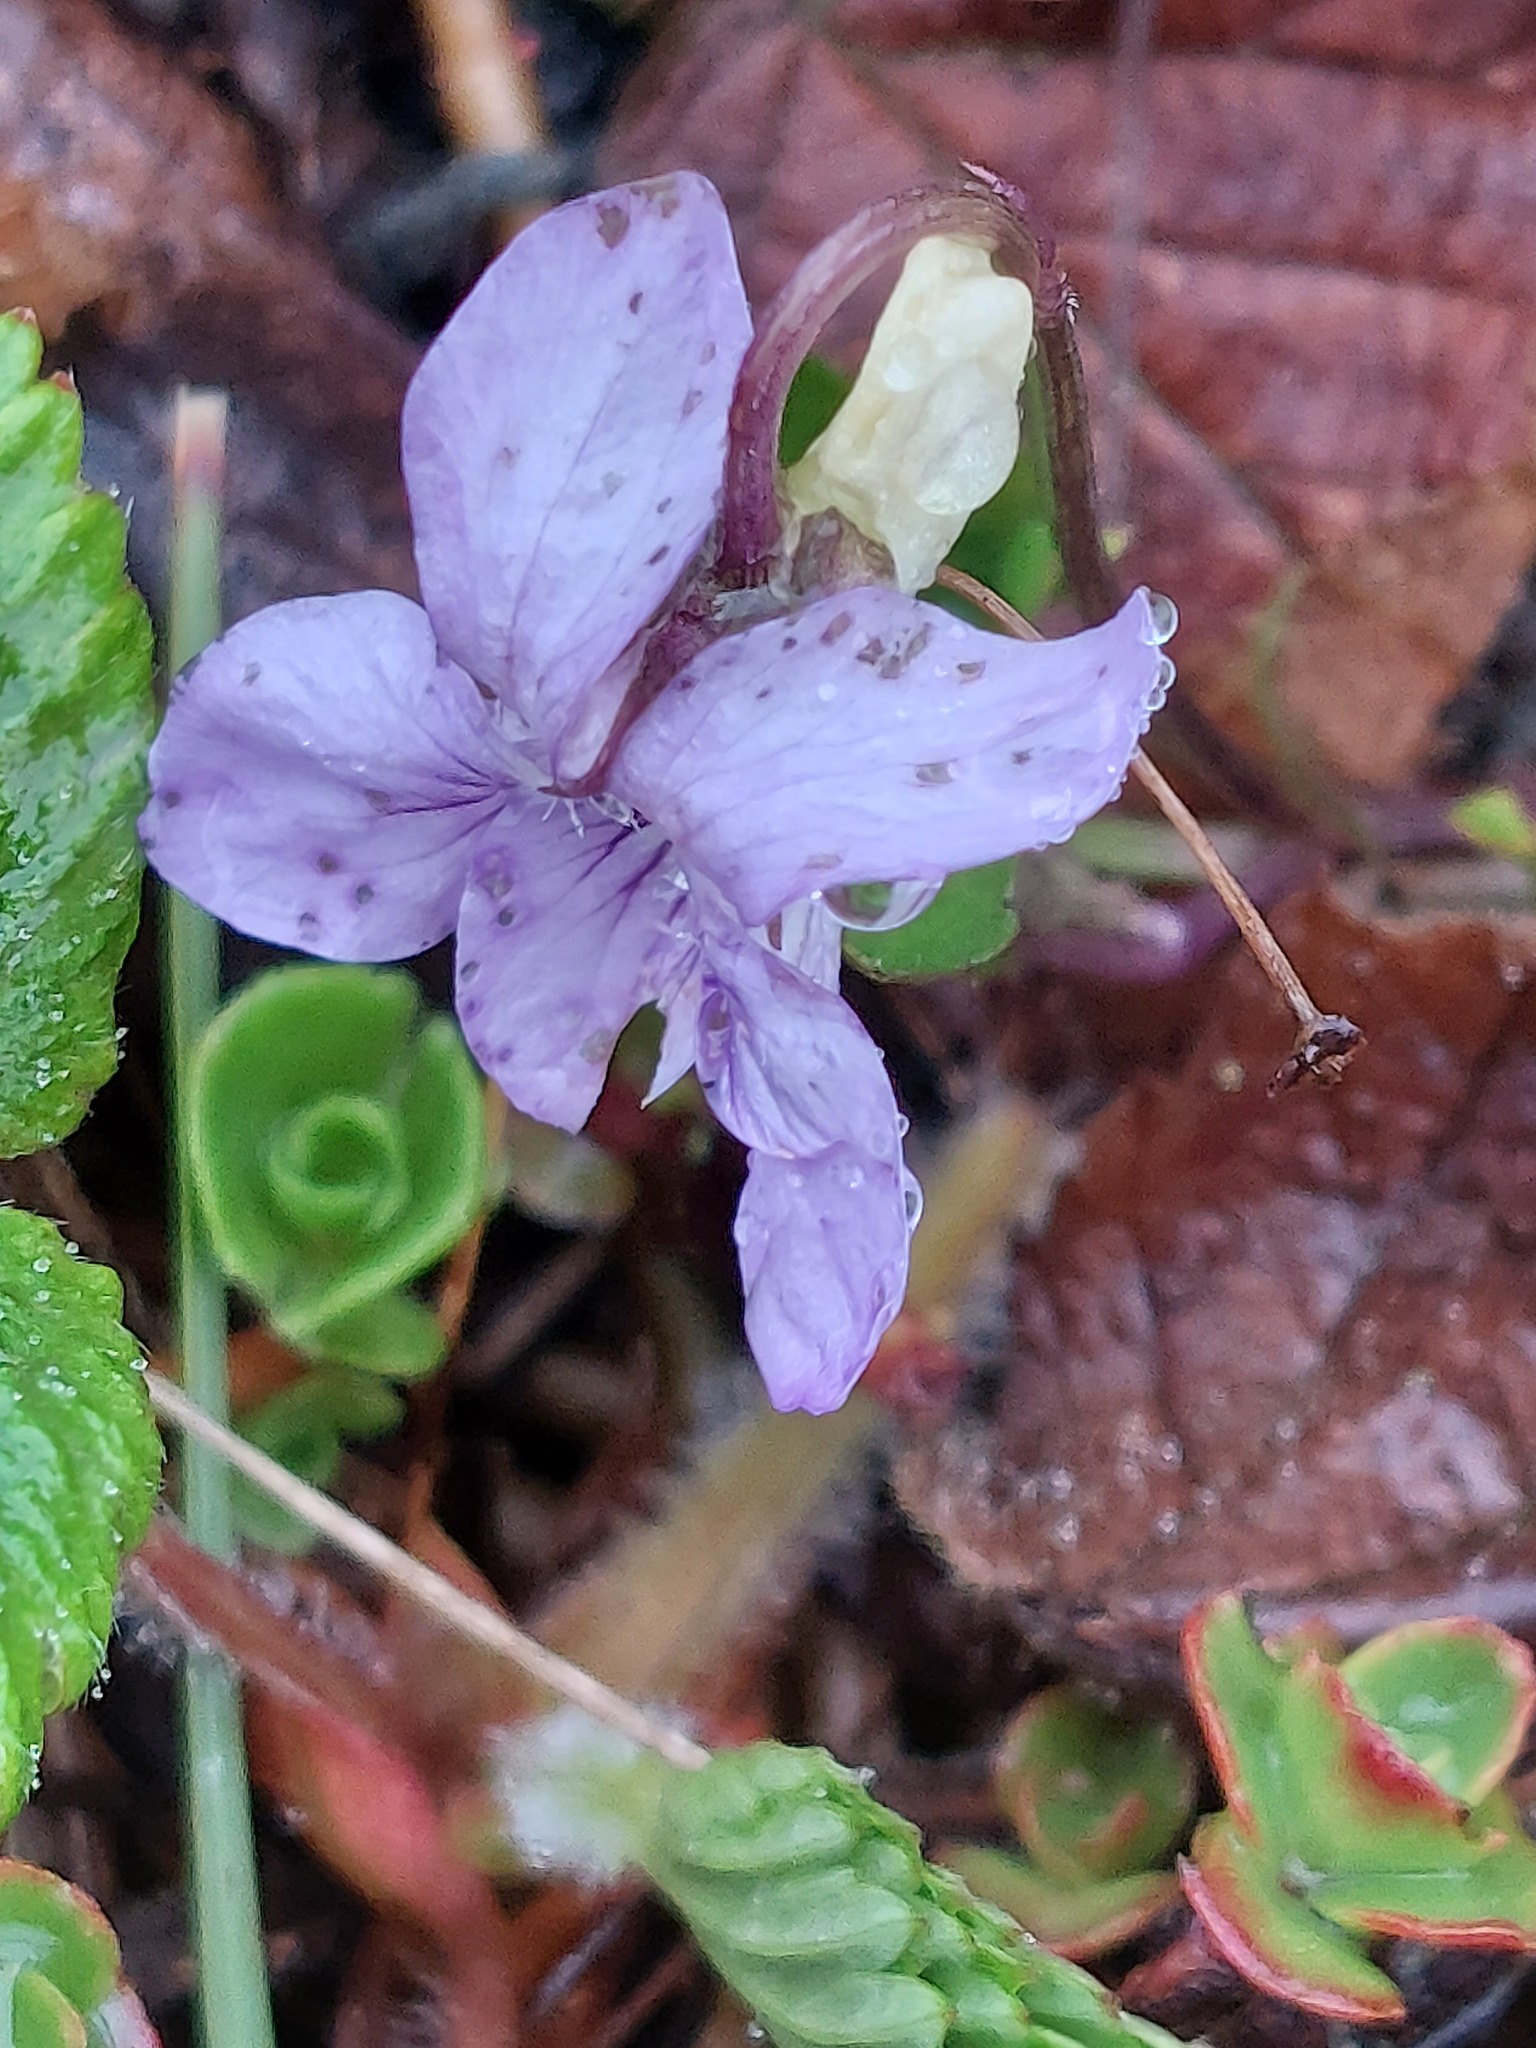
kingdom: Plantae
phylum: Tracheophyta
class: Magnoliopsida
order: Malpighiales
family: Violaceae
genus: Viola
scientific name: Viola riviniana
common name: Common dog-violet
